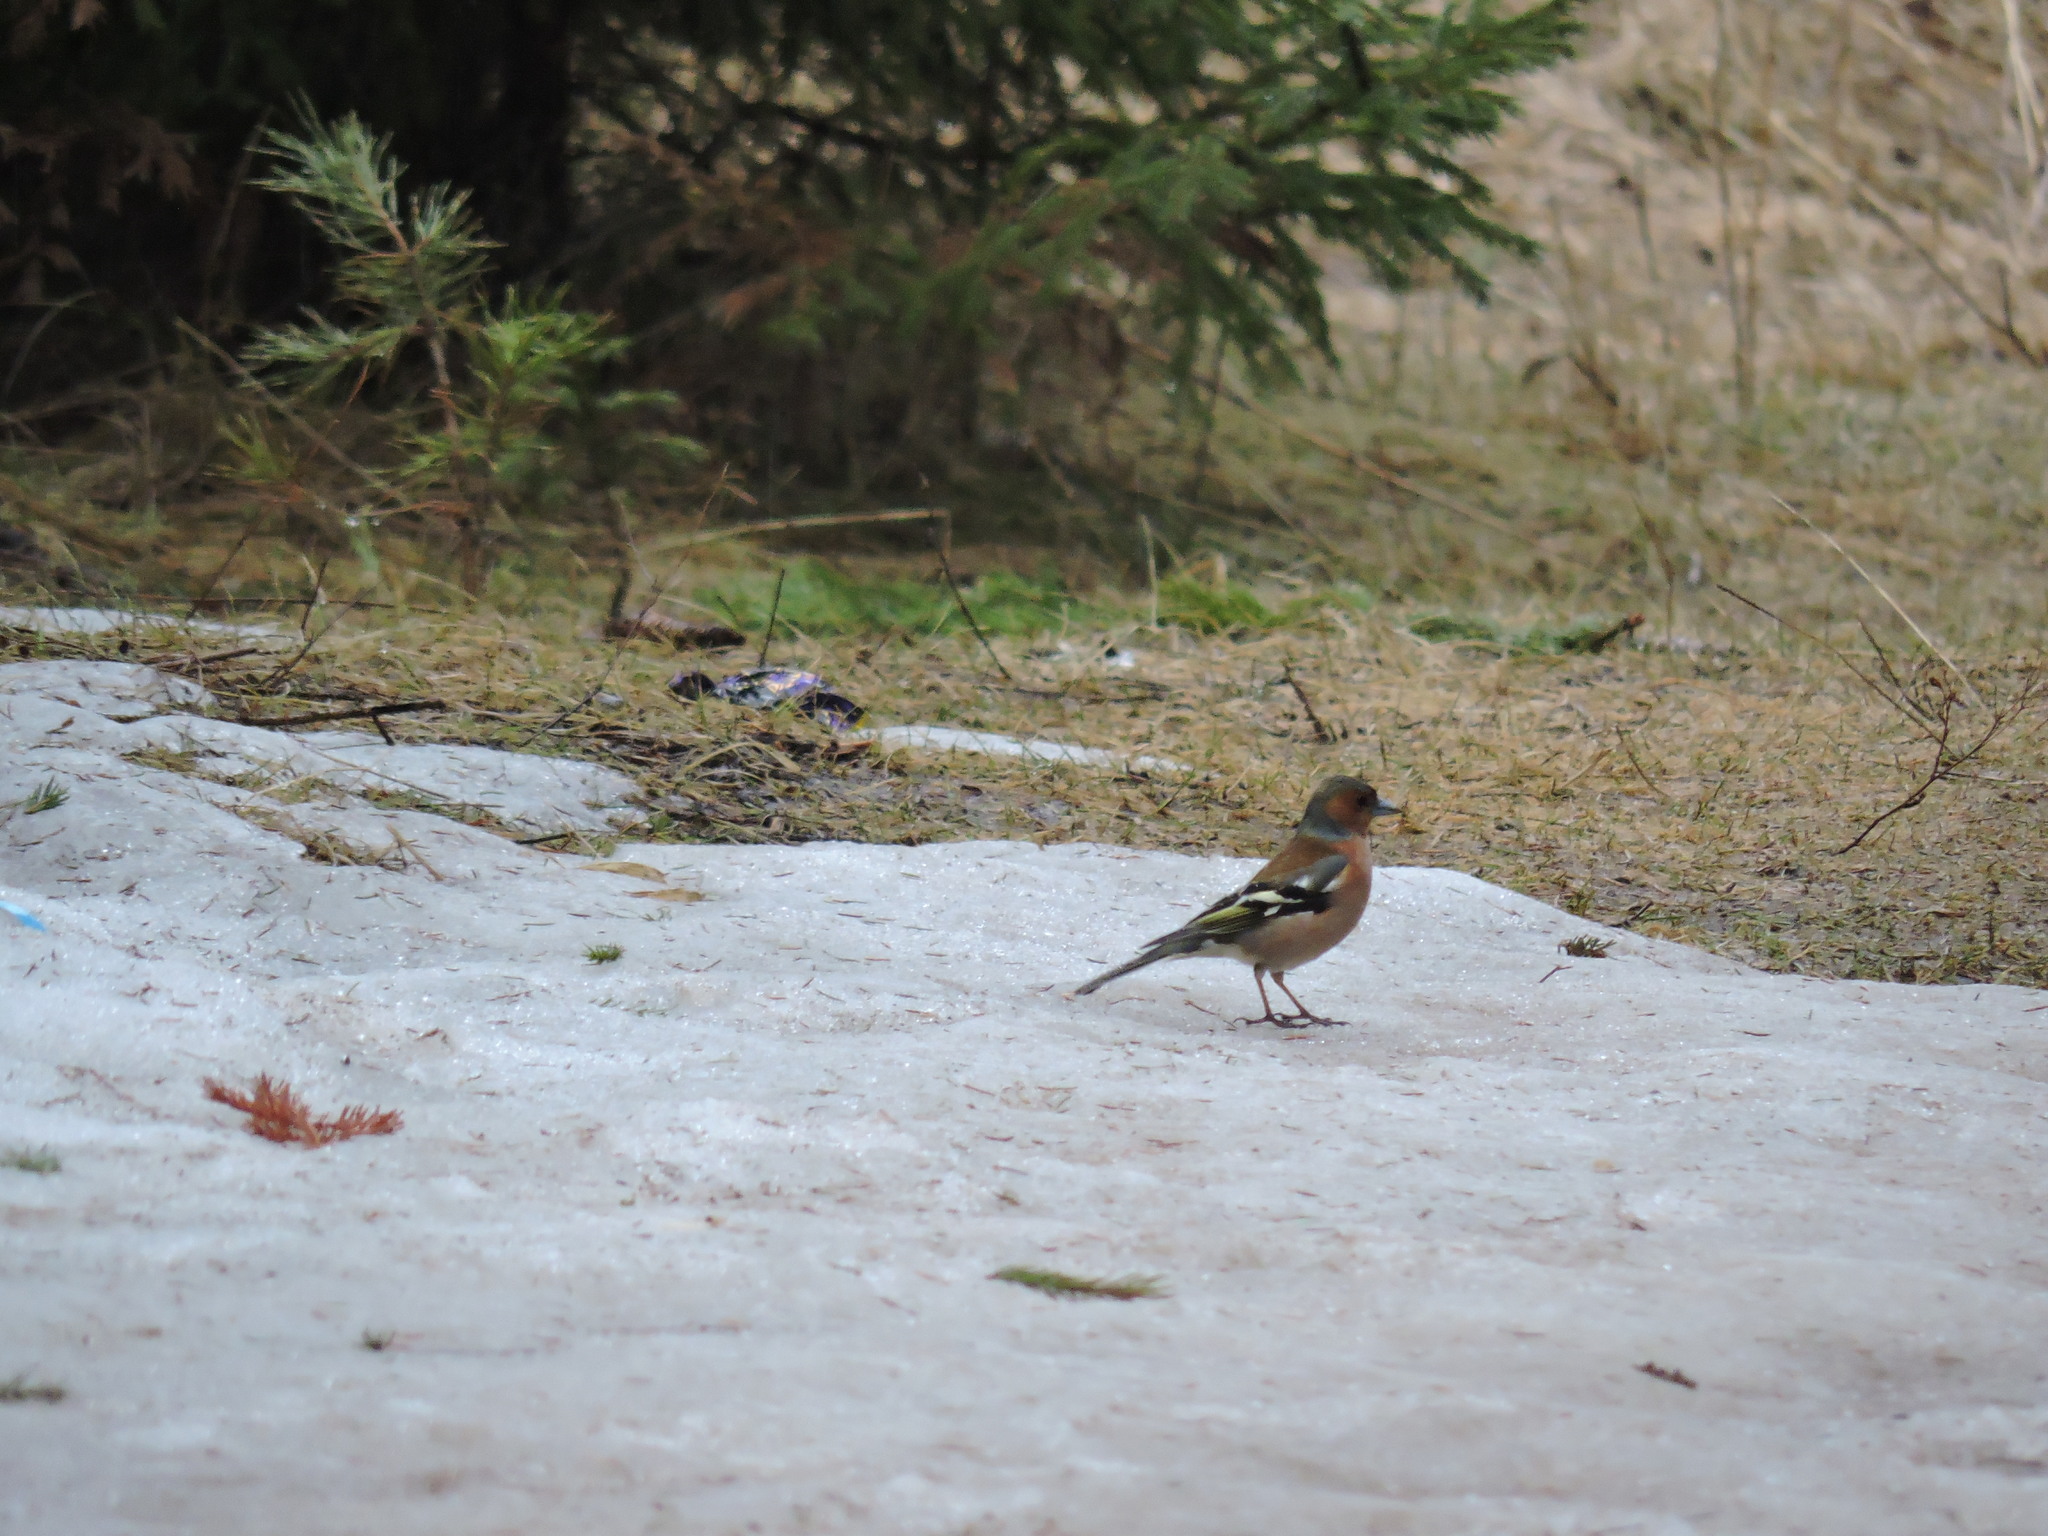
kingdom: Animalia
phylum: Chordata
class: Aves
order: Passeriformes
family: Fringillidae
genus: Fringilla
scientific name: Fringilla coelebs
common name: Common chaffinch
